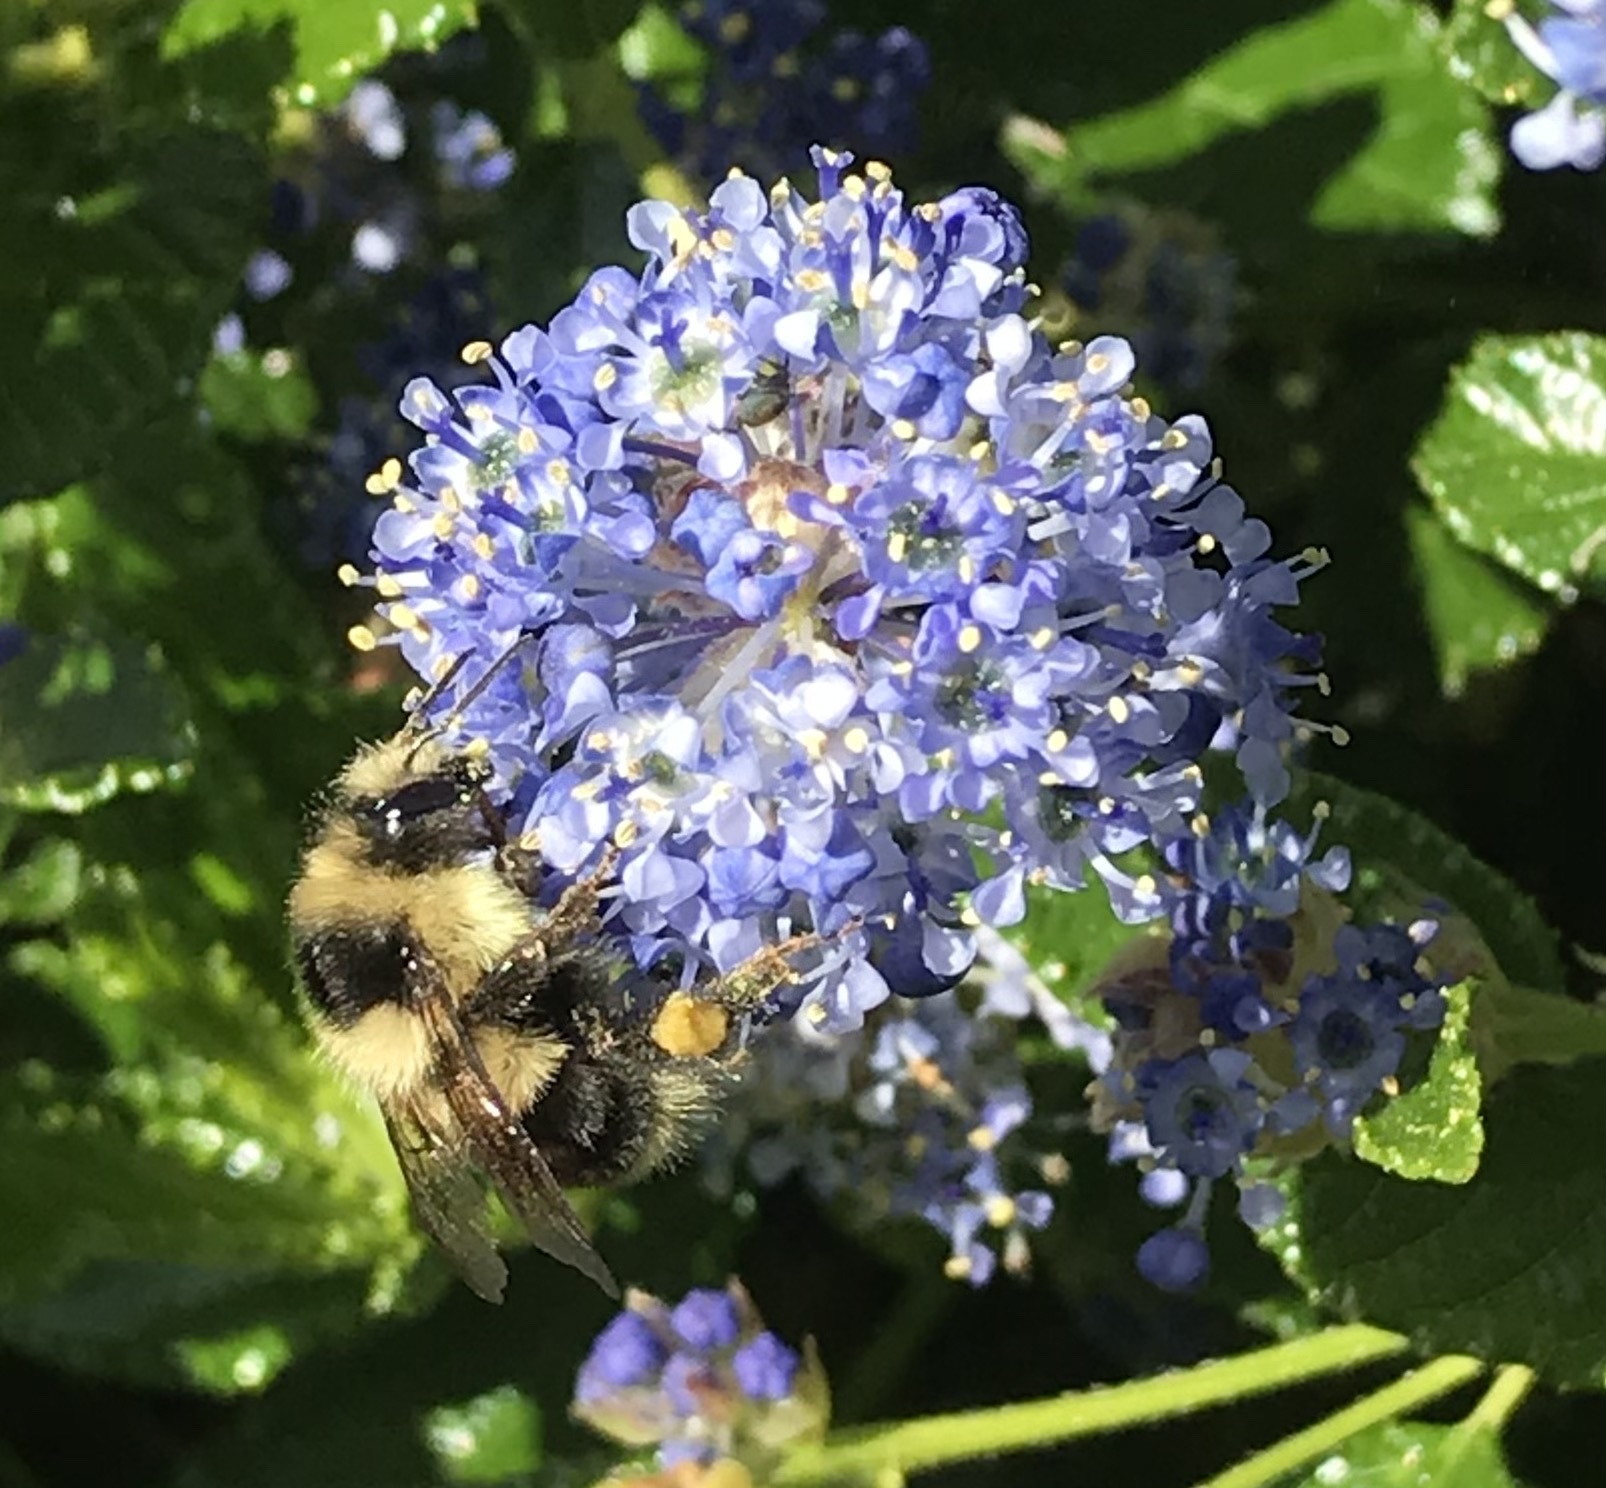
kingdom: Animalia
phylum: Arthropoda
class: Insecta
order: Hymenoptera
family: Apidae
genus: Bombus
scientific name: Bombus melanopygus
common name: Black tail bumble bee
